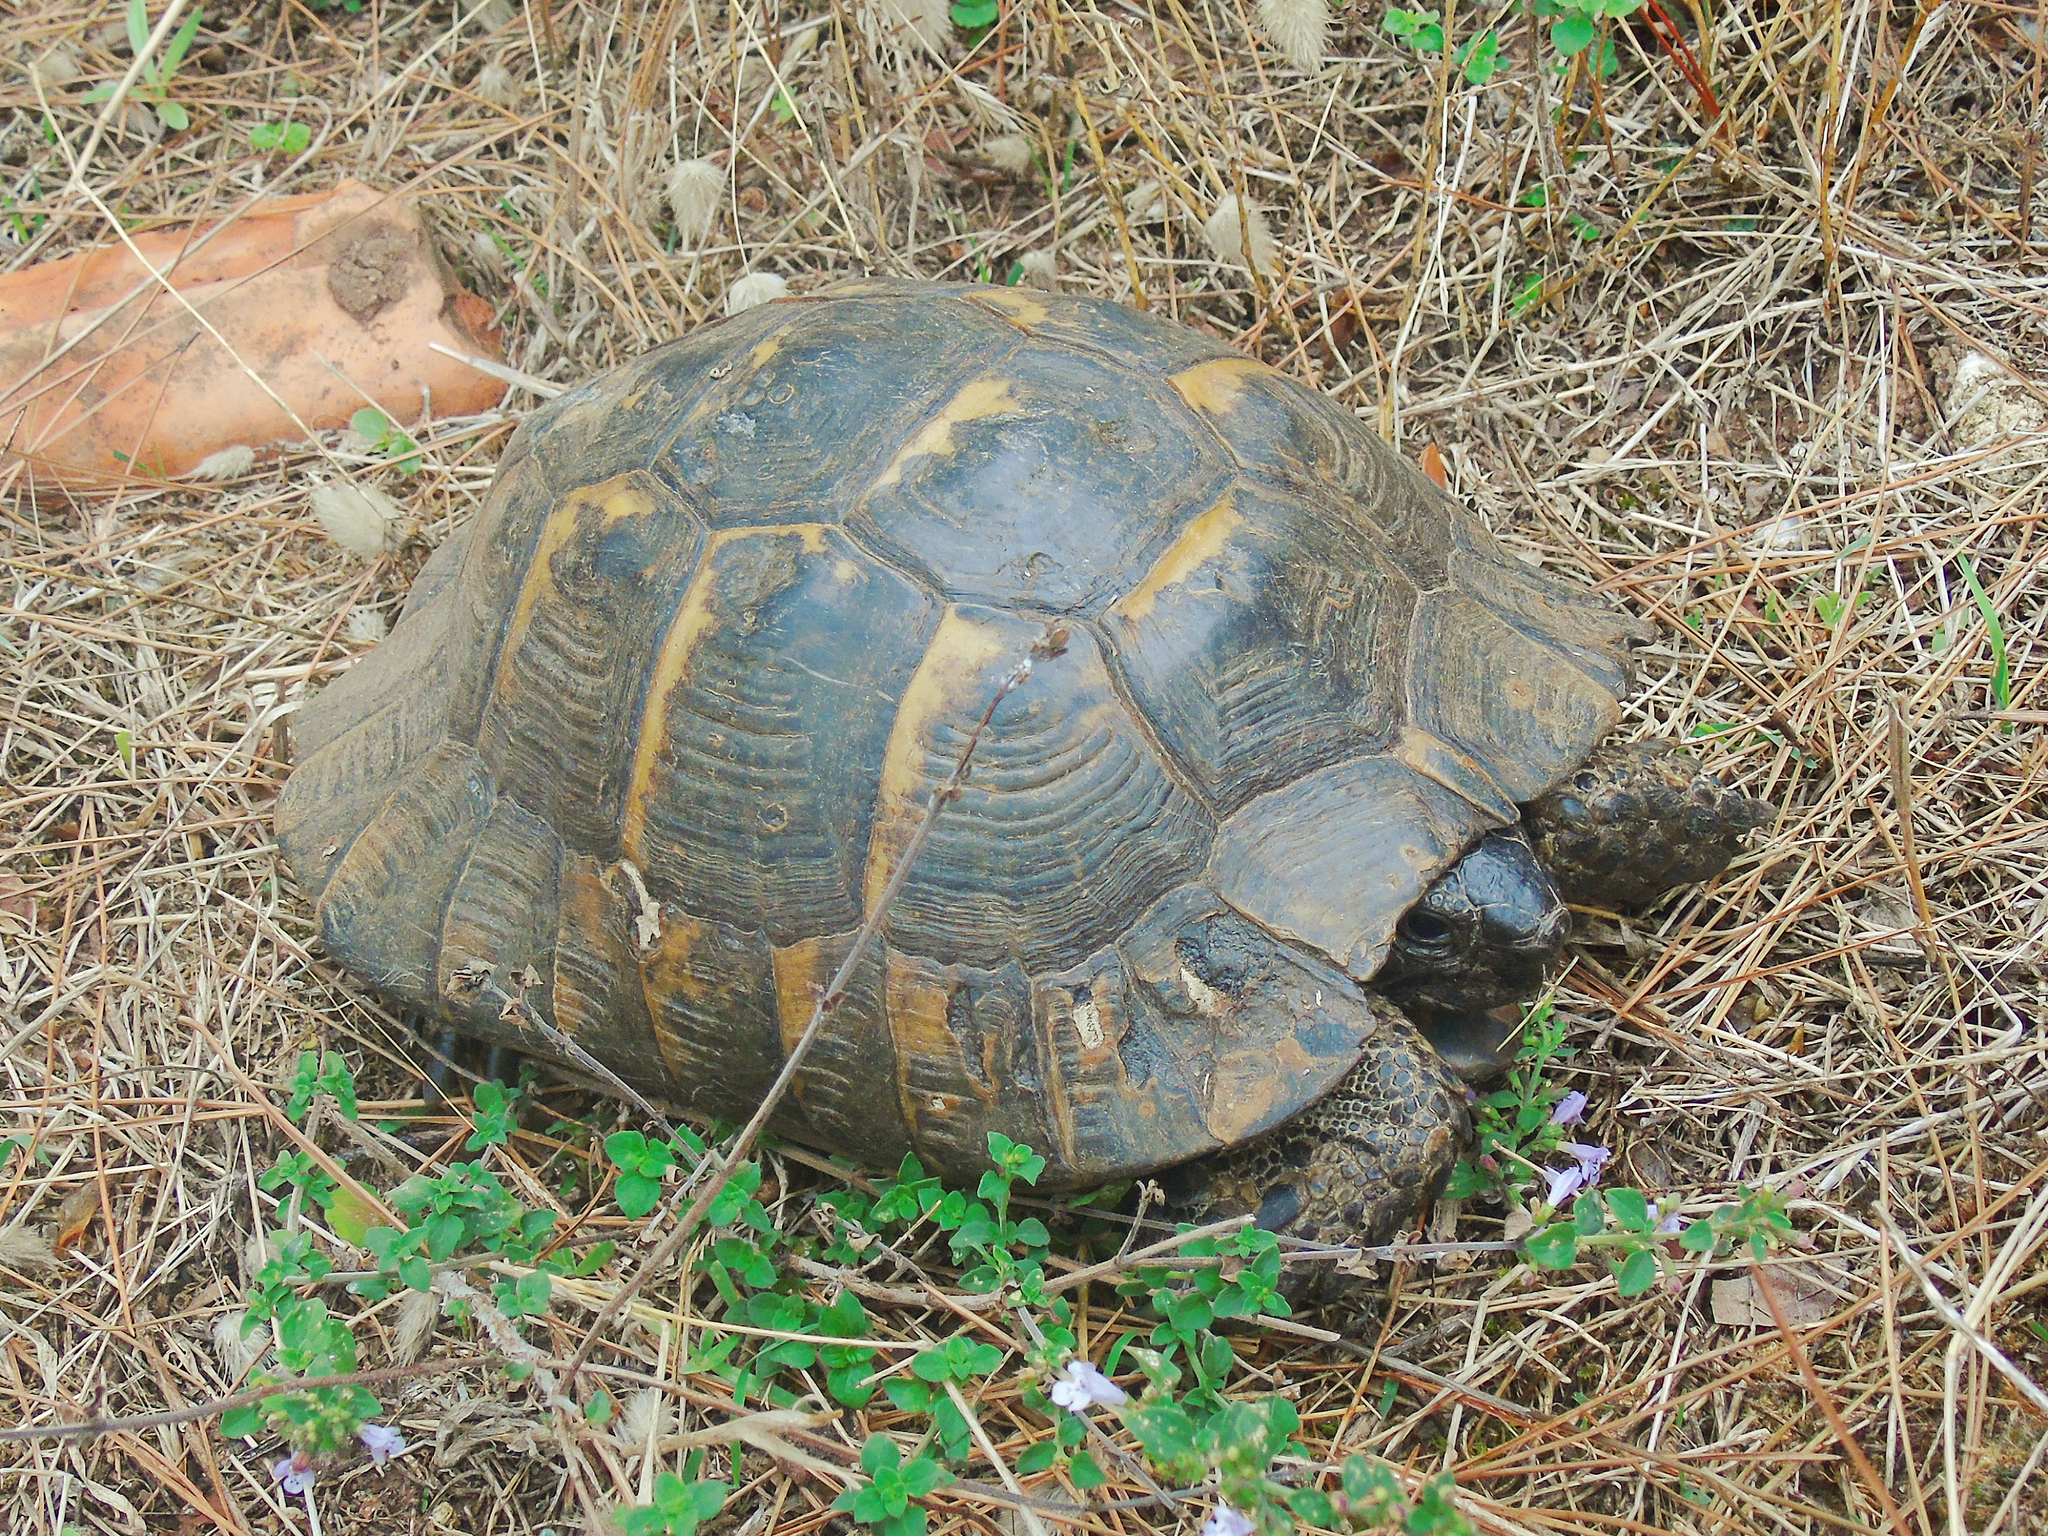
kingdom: Animalia
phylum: Chordata
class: Testudines
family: Testudinidae
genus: Testudo
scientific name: Testudo graeca
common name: Common tortoise
